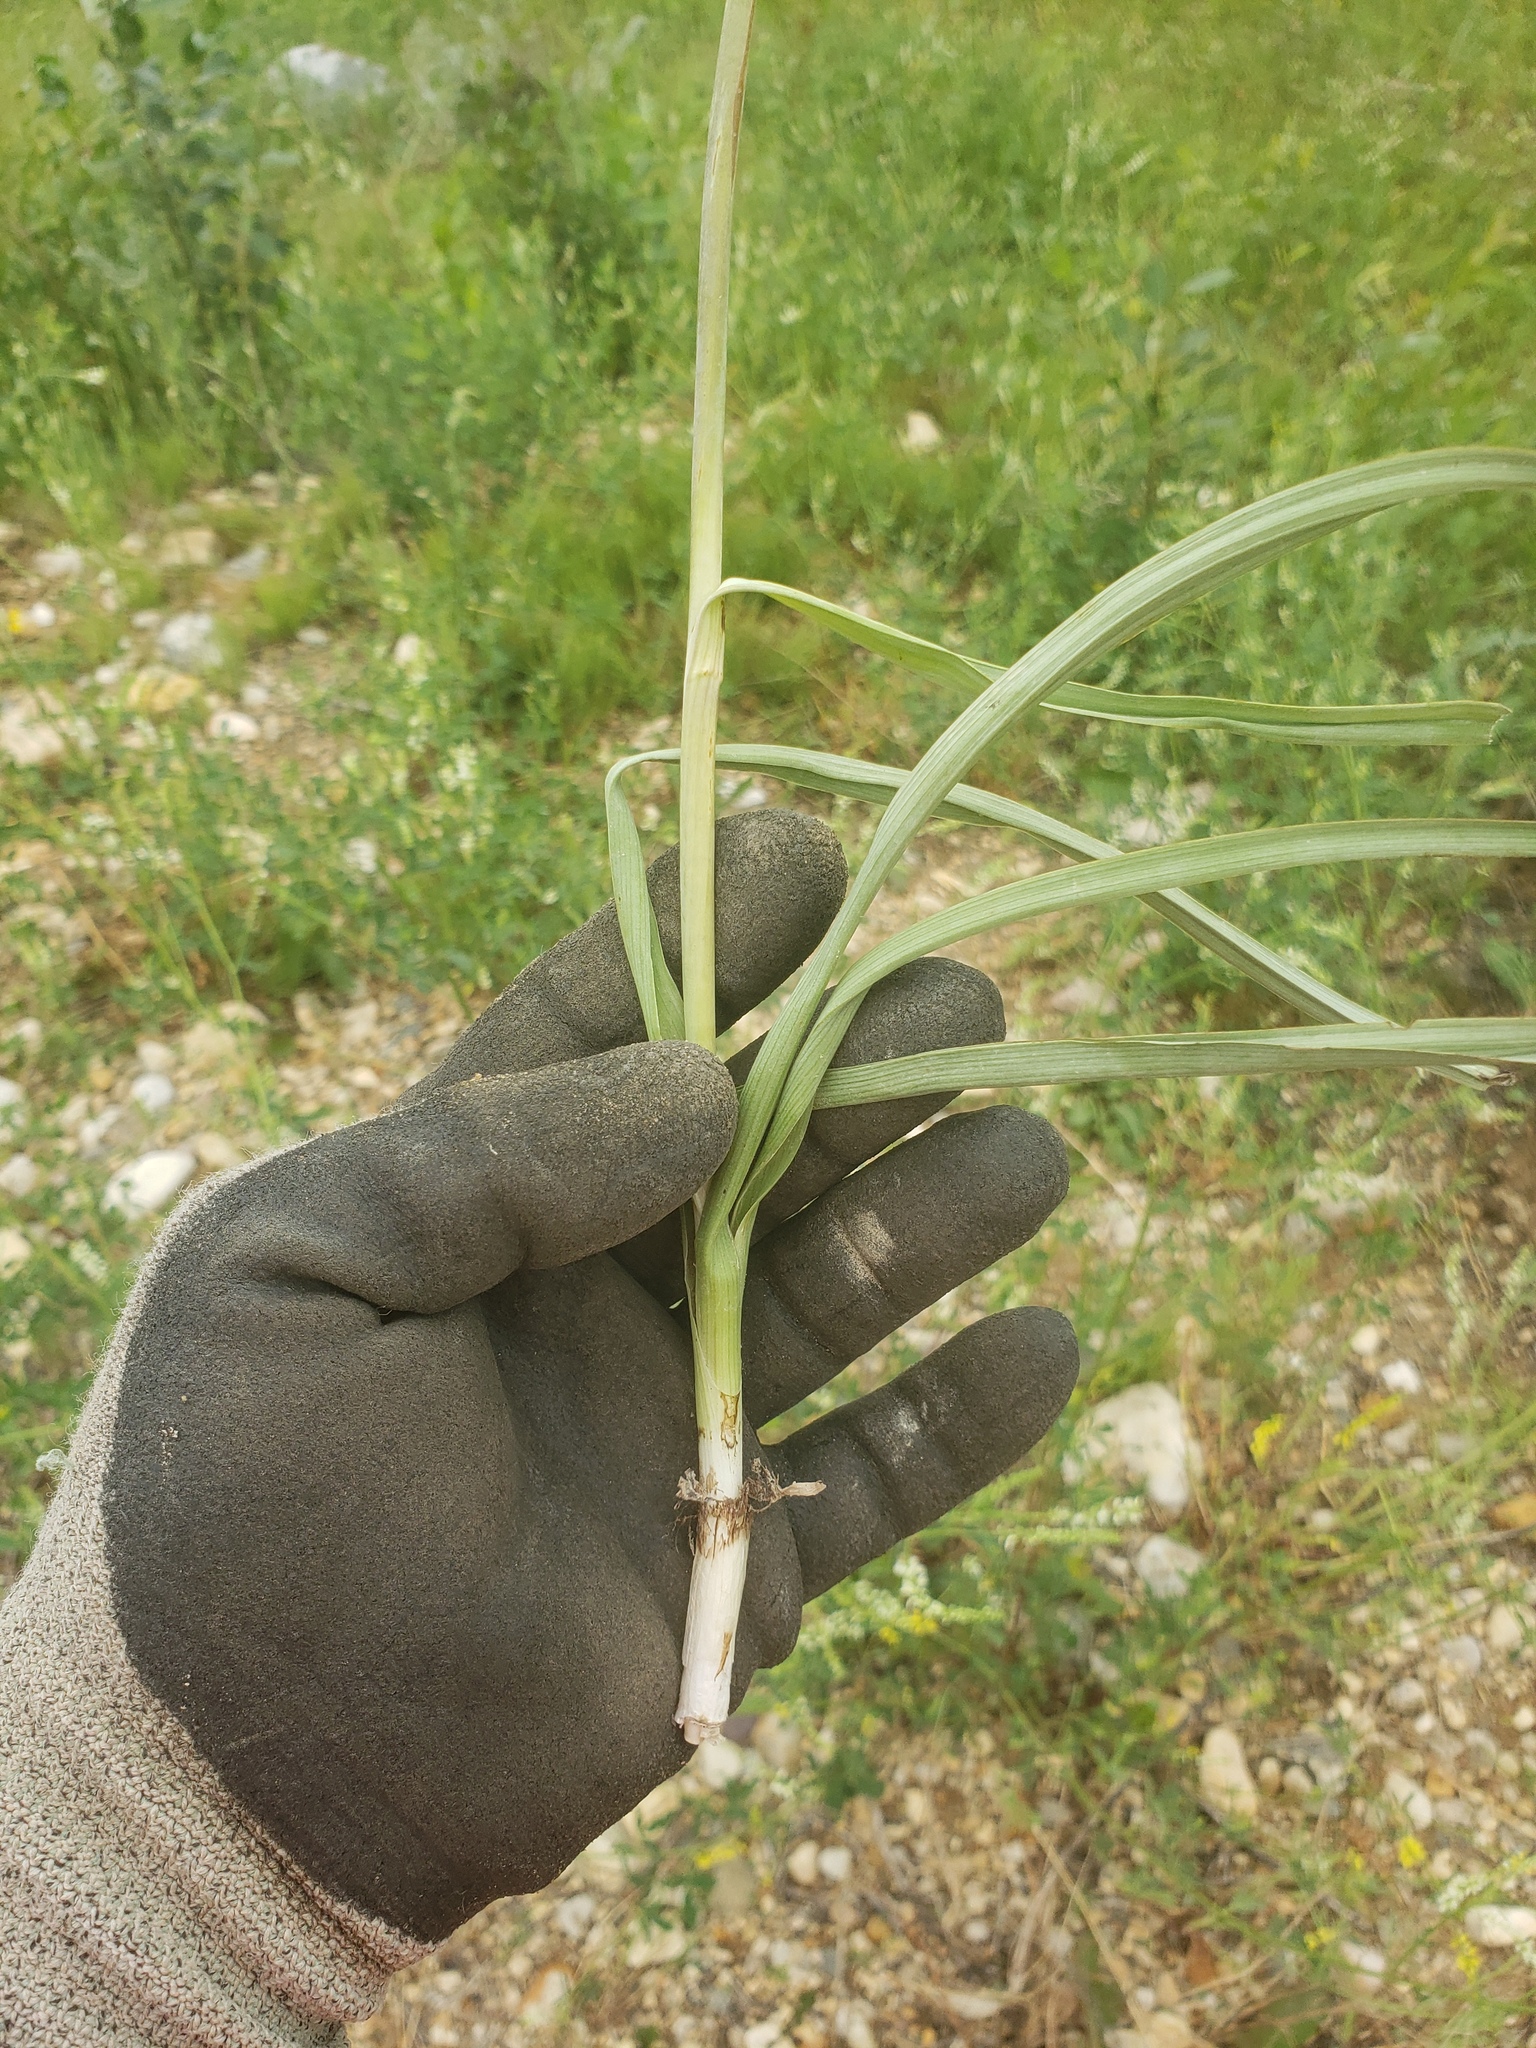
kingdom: Plantae
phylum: Tracheophyta
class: Liliopsida
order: Liliales
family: Melanthiaceae
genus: Anticlea
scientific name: Anticlea elegans
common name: Mountain death camas
